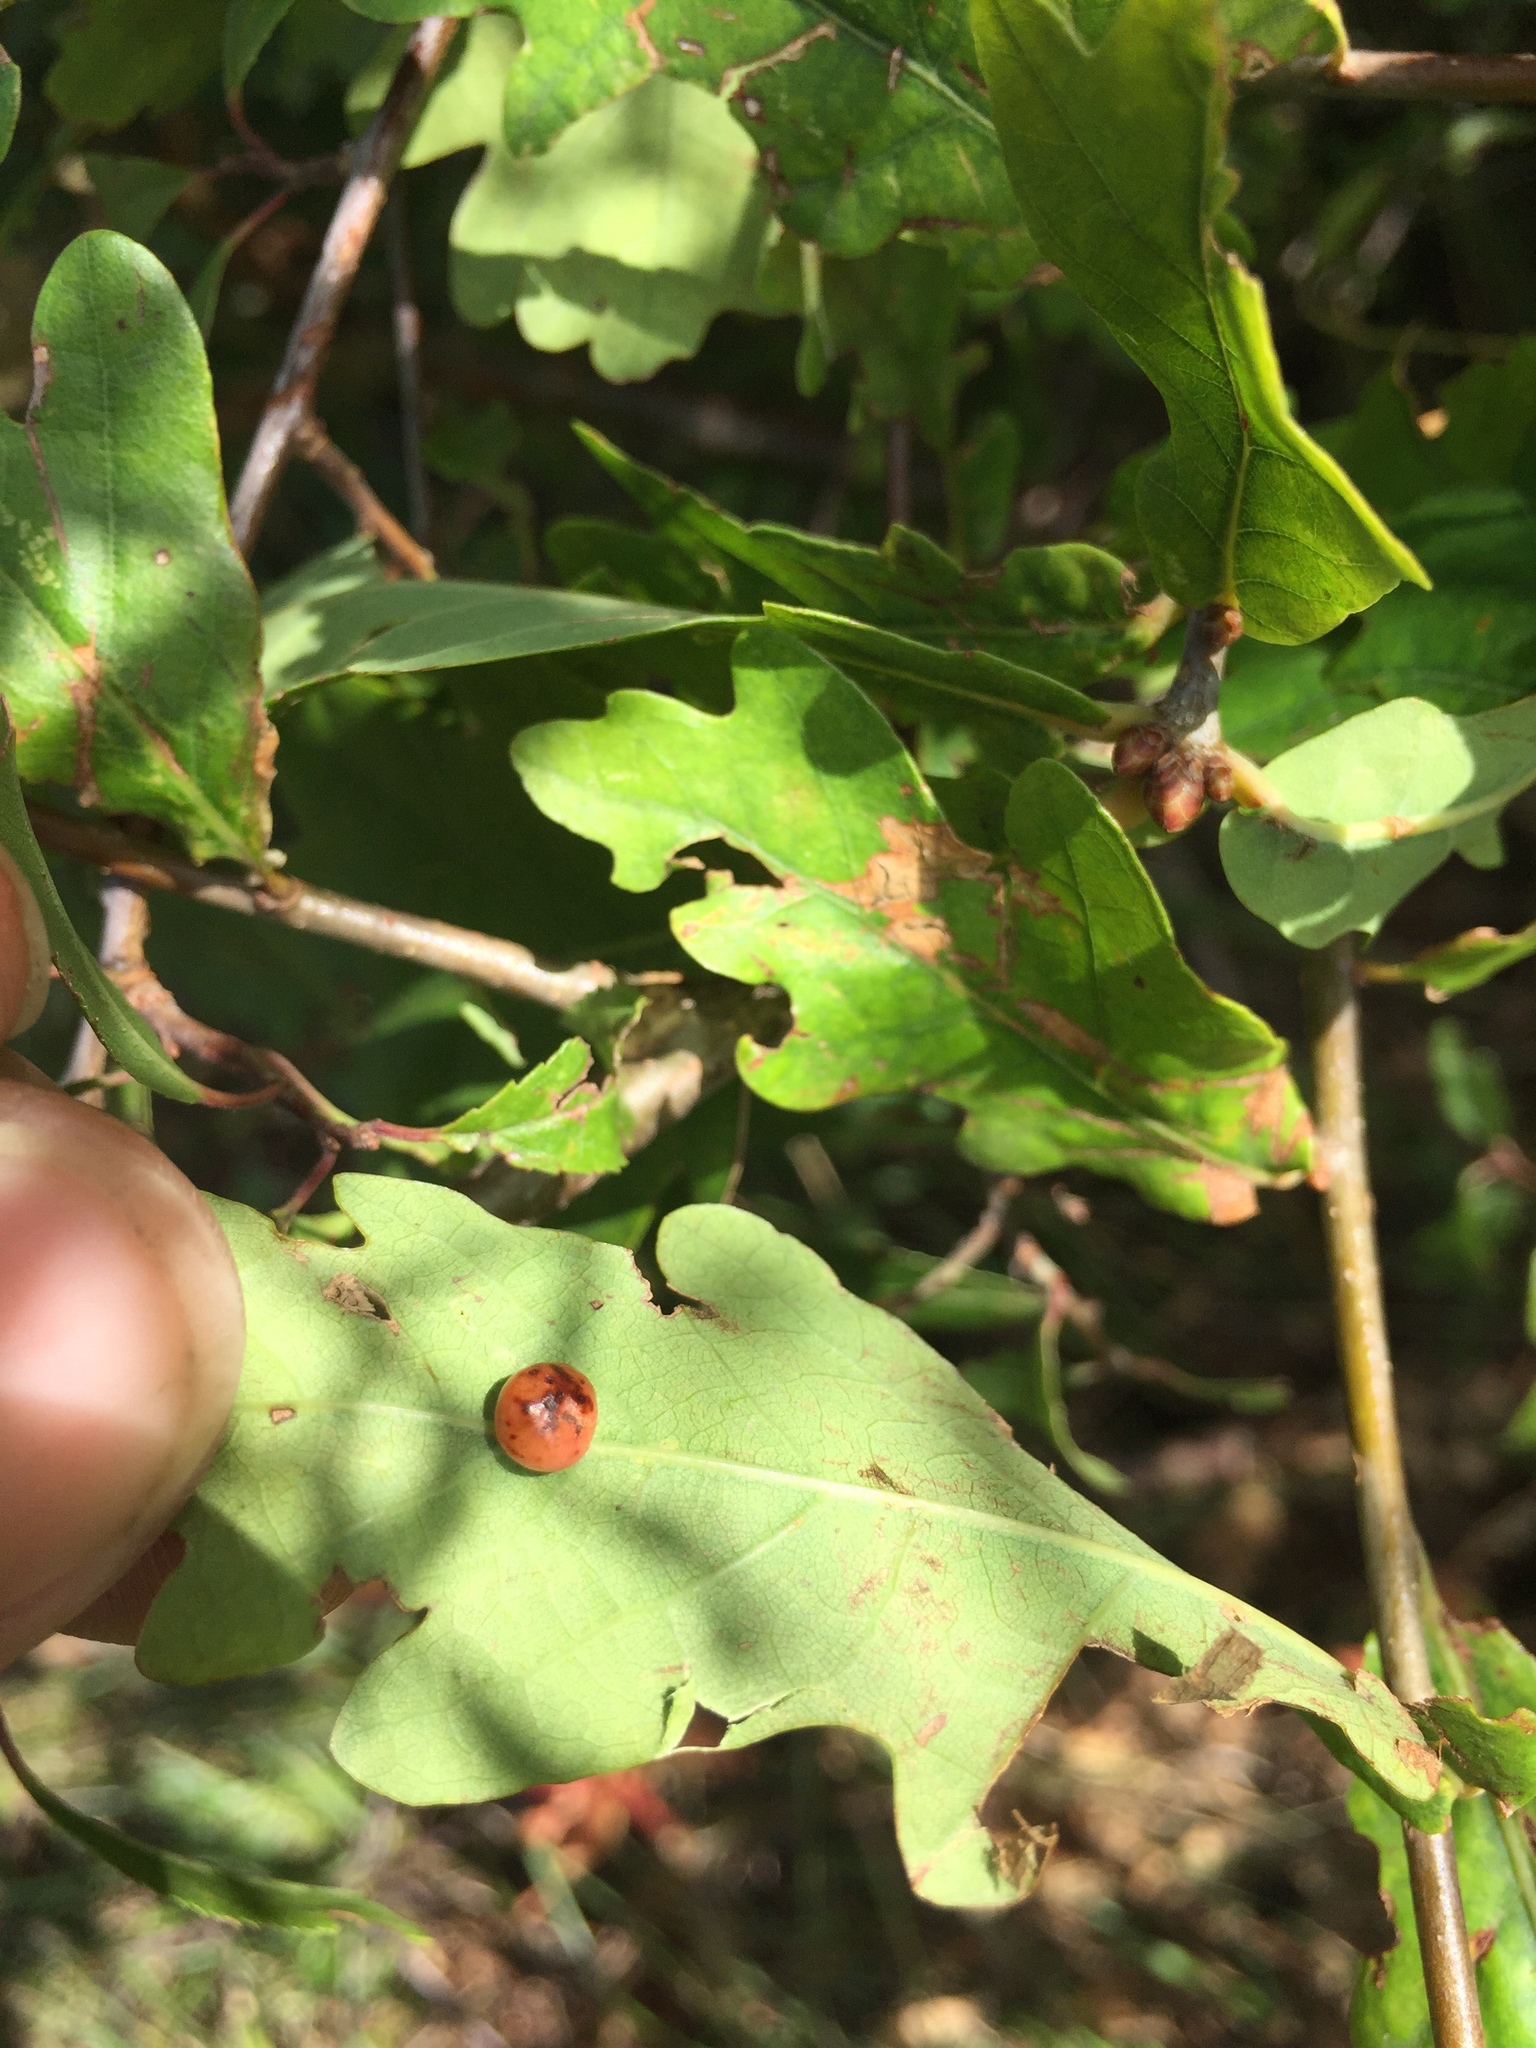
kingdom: Animalia
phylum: Arthropoda
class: Insecta
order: Hymenoptera
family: Cynipidae
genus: Cynips
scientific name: Cynips divisa
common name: Red currant gall
